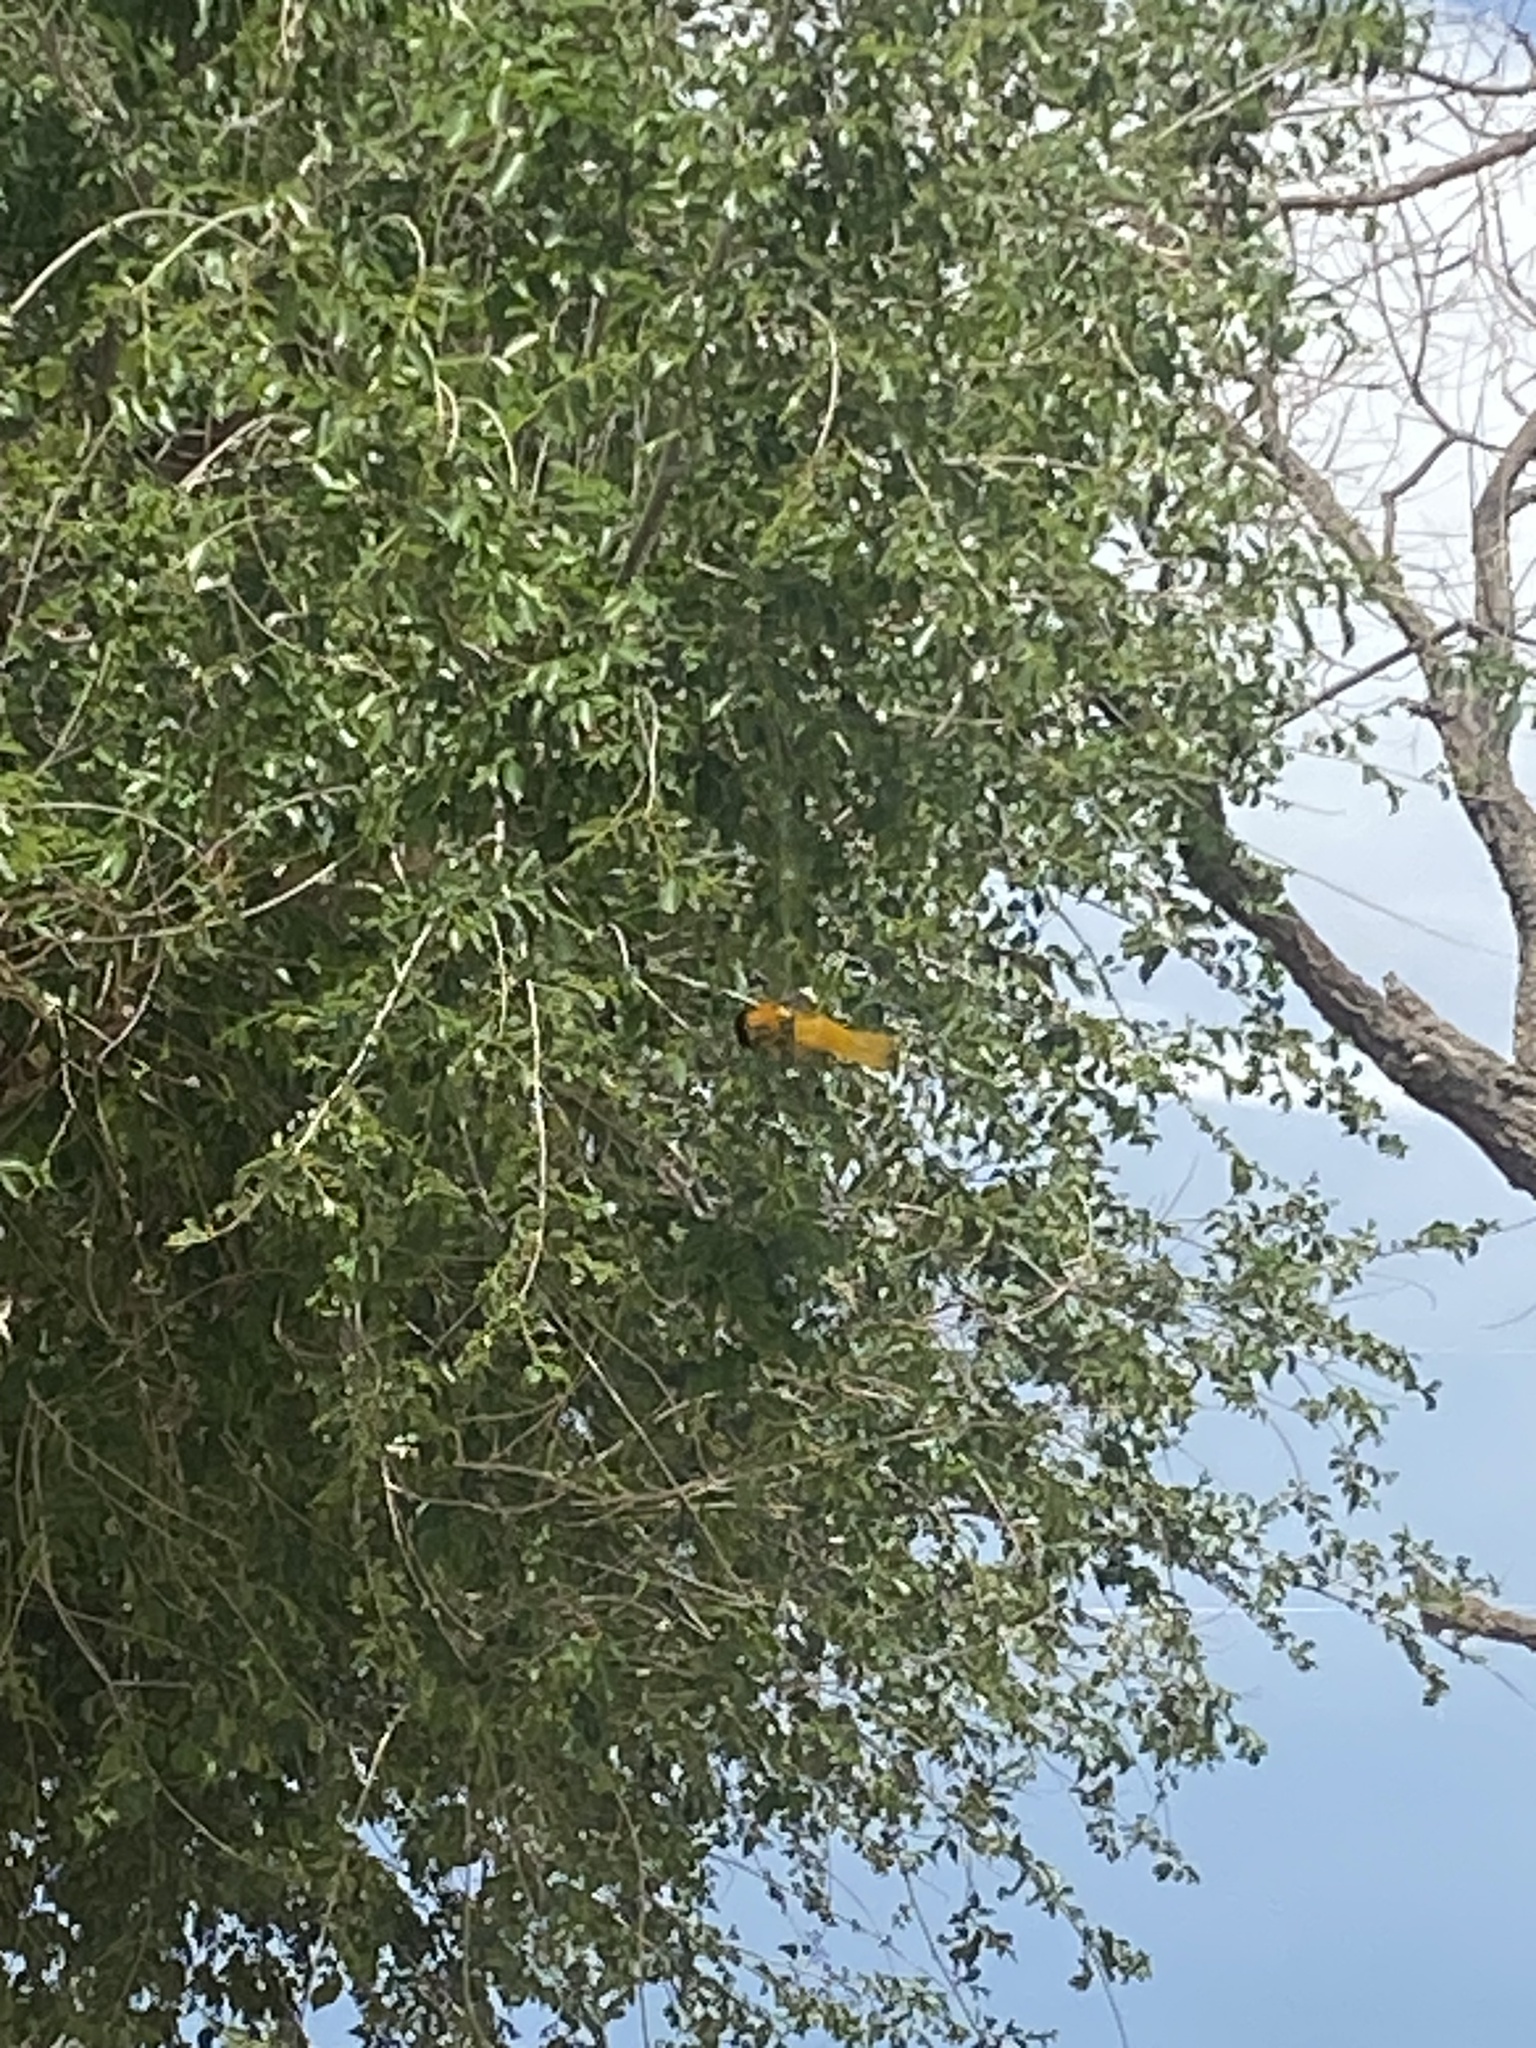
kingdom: Animalia
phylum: Chordata
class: Aves
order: Passeriformes
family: Icteridae
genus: Icterus
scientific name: Icterus bullockii
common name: Bullock's oriole
